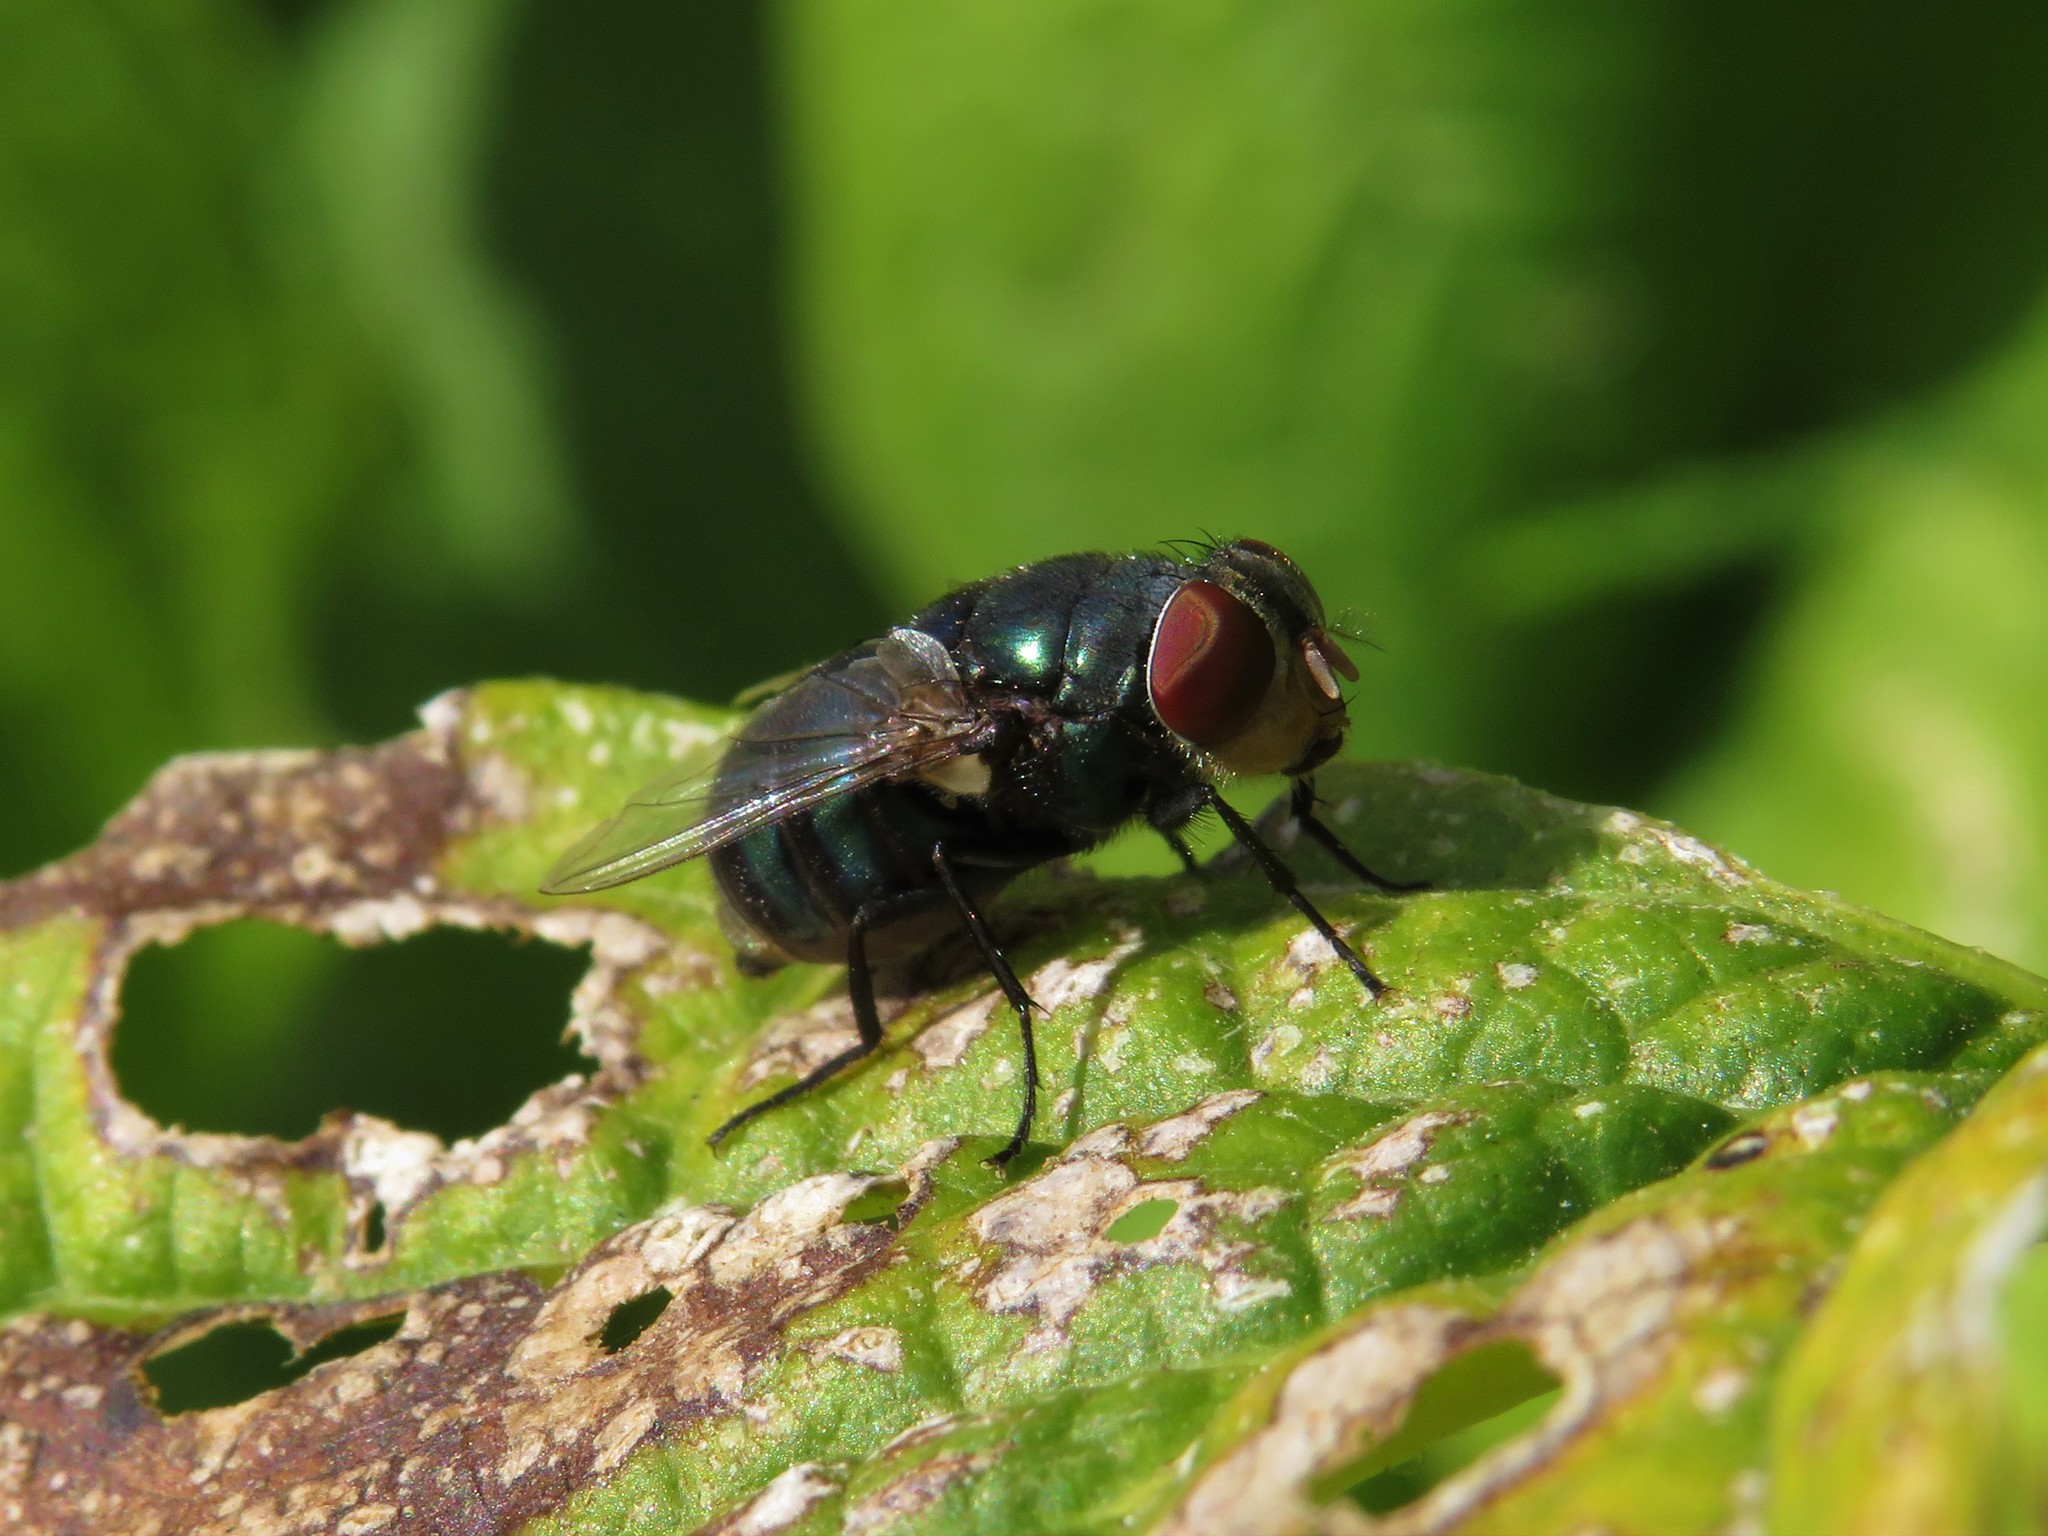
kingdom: Animalia
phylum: Arthropoda
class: Insecta
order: Diptera
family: Calliphoridae
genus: Chrysomya
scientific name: Chrysomya megacephala
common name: Blow fly
